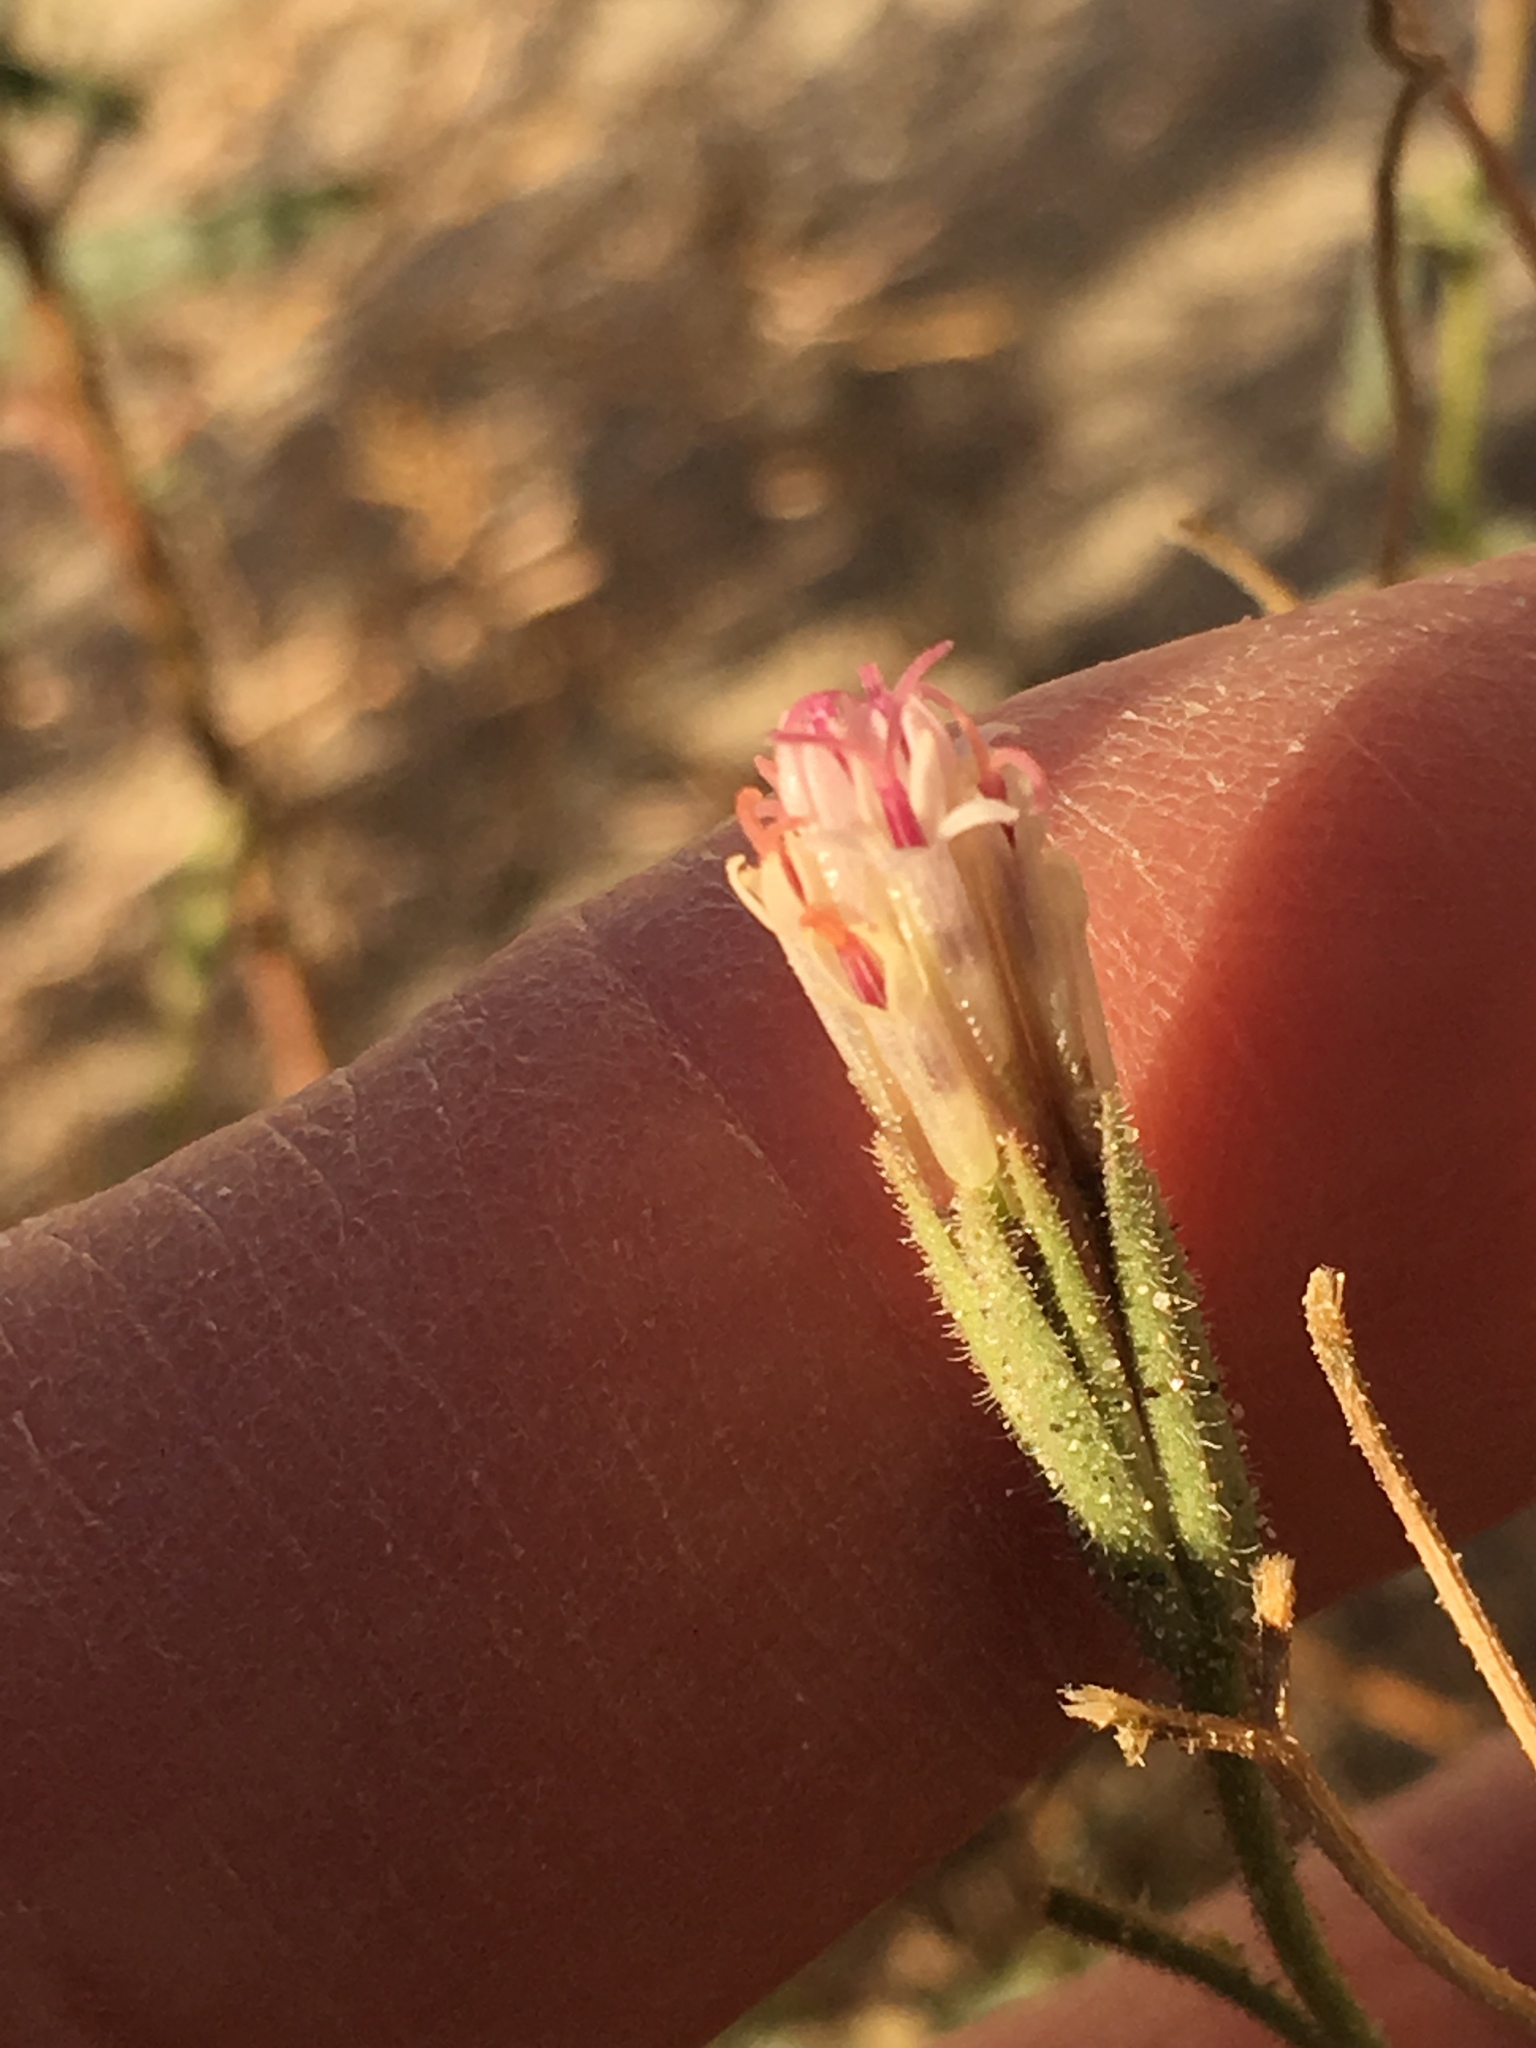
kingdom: Plantae
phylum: Tracheophyta
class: Magnoliopsida
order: Asterales
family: Asteraceae
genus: Palafoxia
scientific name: Palafoxia arida
